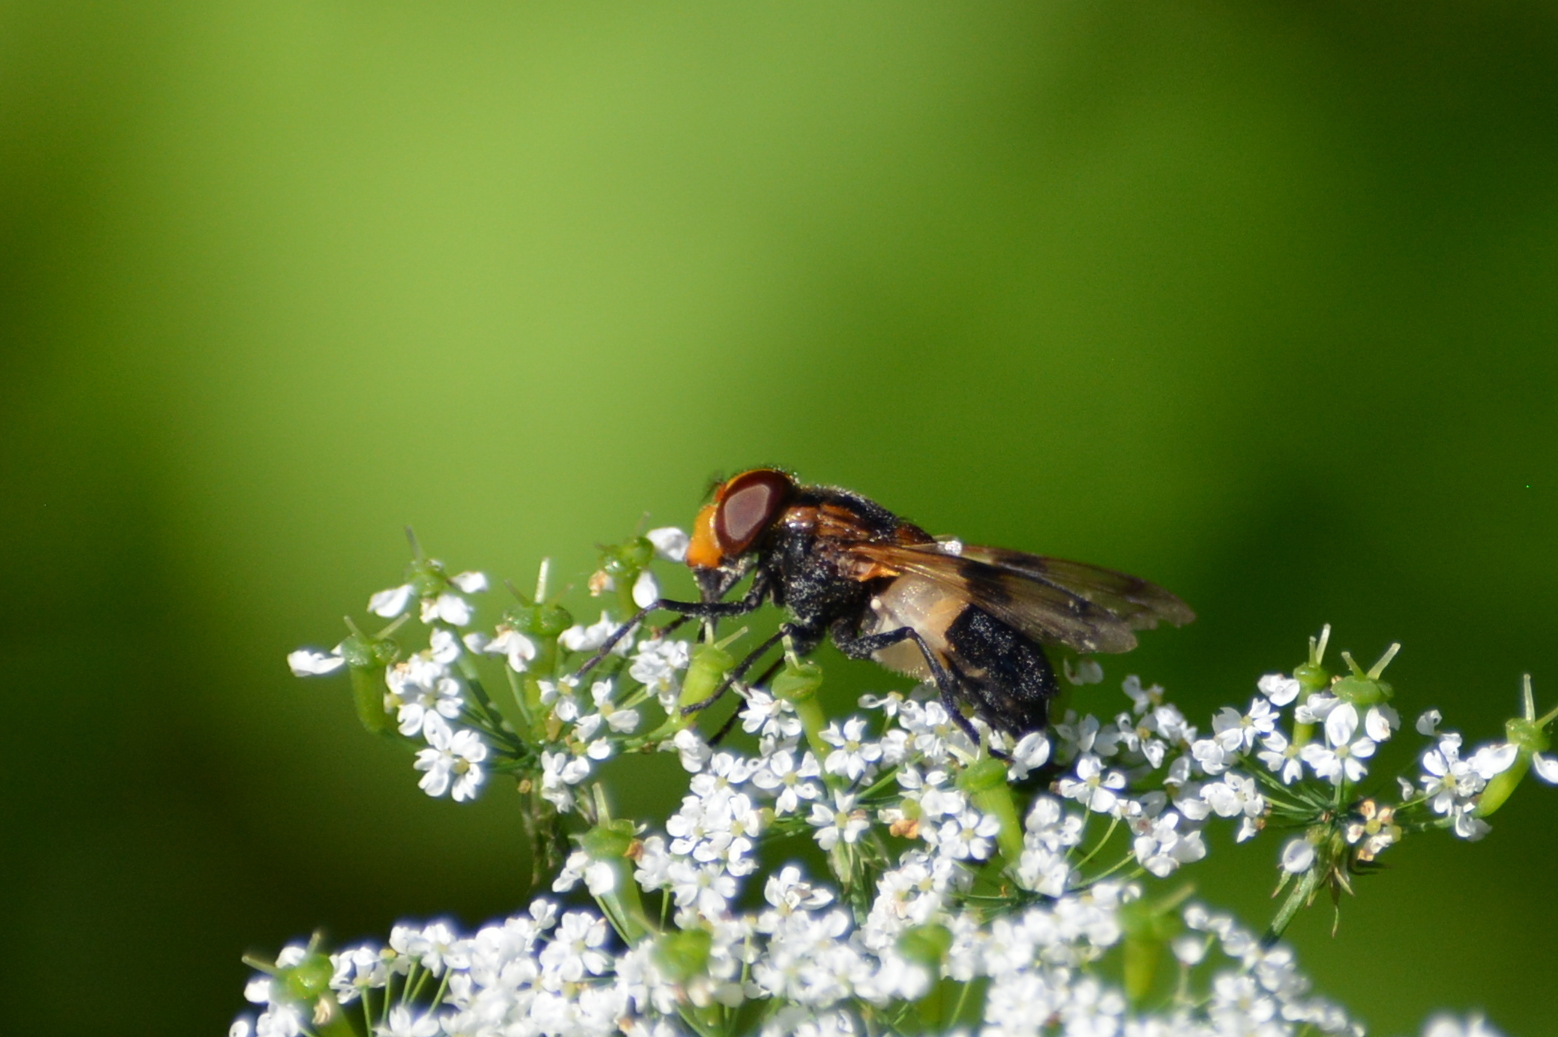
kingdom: Animalia
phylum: Arthropoda
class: Insecta
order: Diptera
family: Syrphidae
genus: Volucella
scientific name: Volucella pellucens
